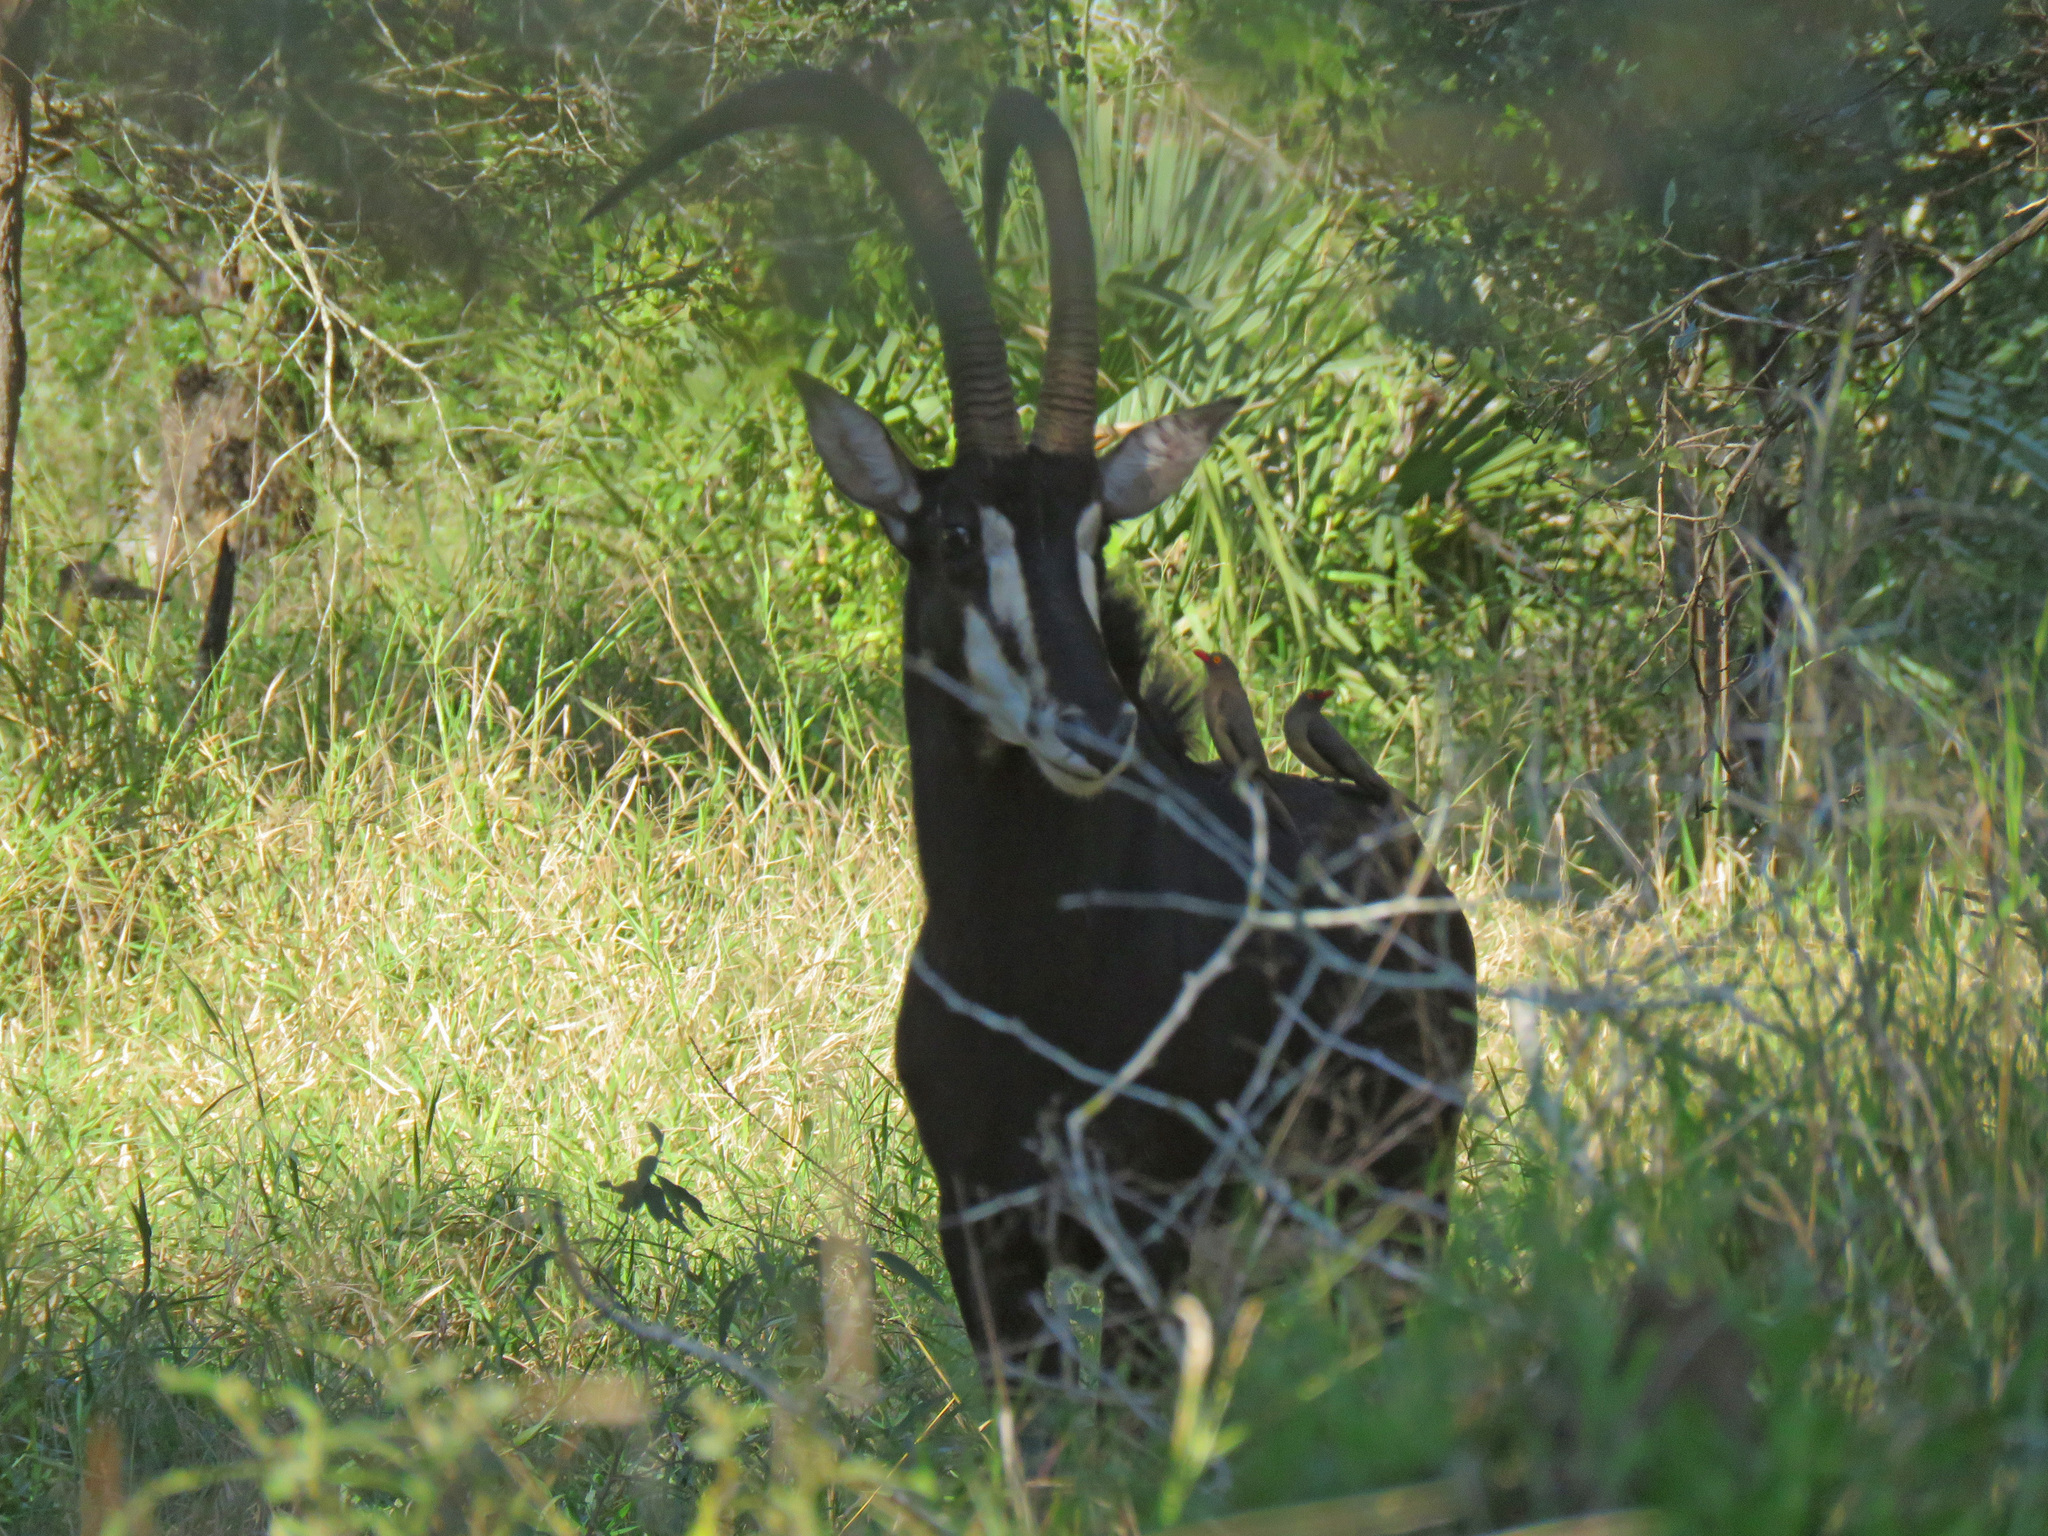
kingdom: Animalia
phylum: Chordata
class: Mammalia
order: Artiodactyla
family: Bovidae
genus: Hippotragus
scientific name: Hippotragus niger
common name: Sable antelope
